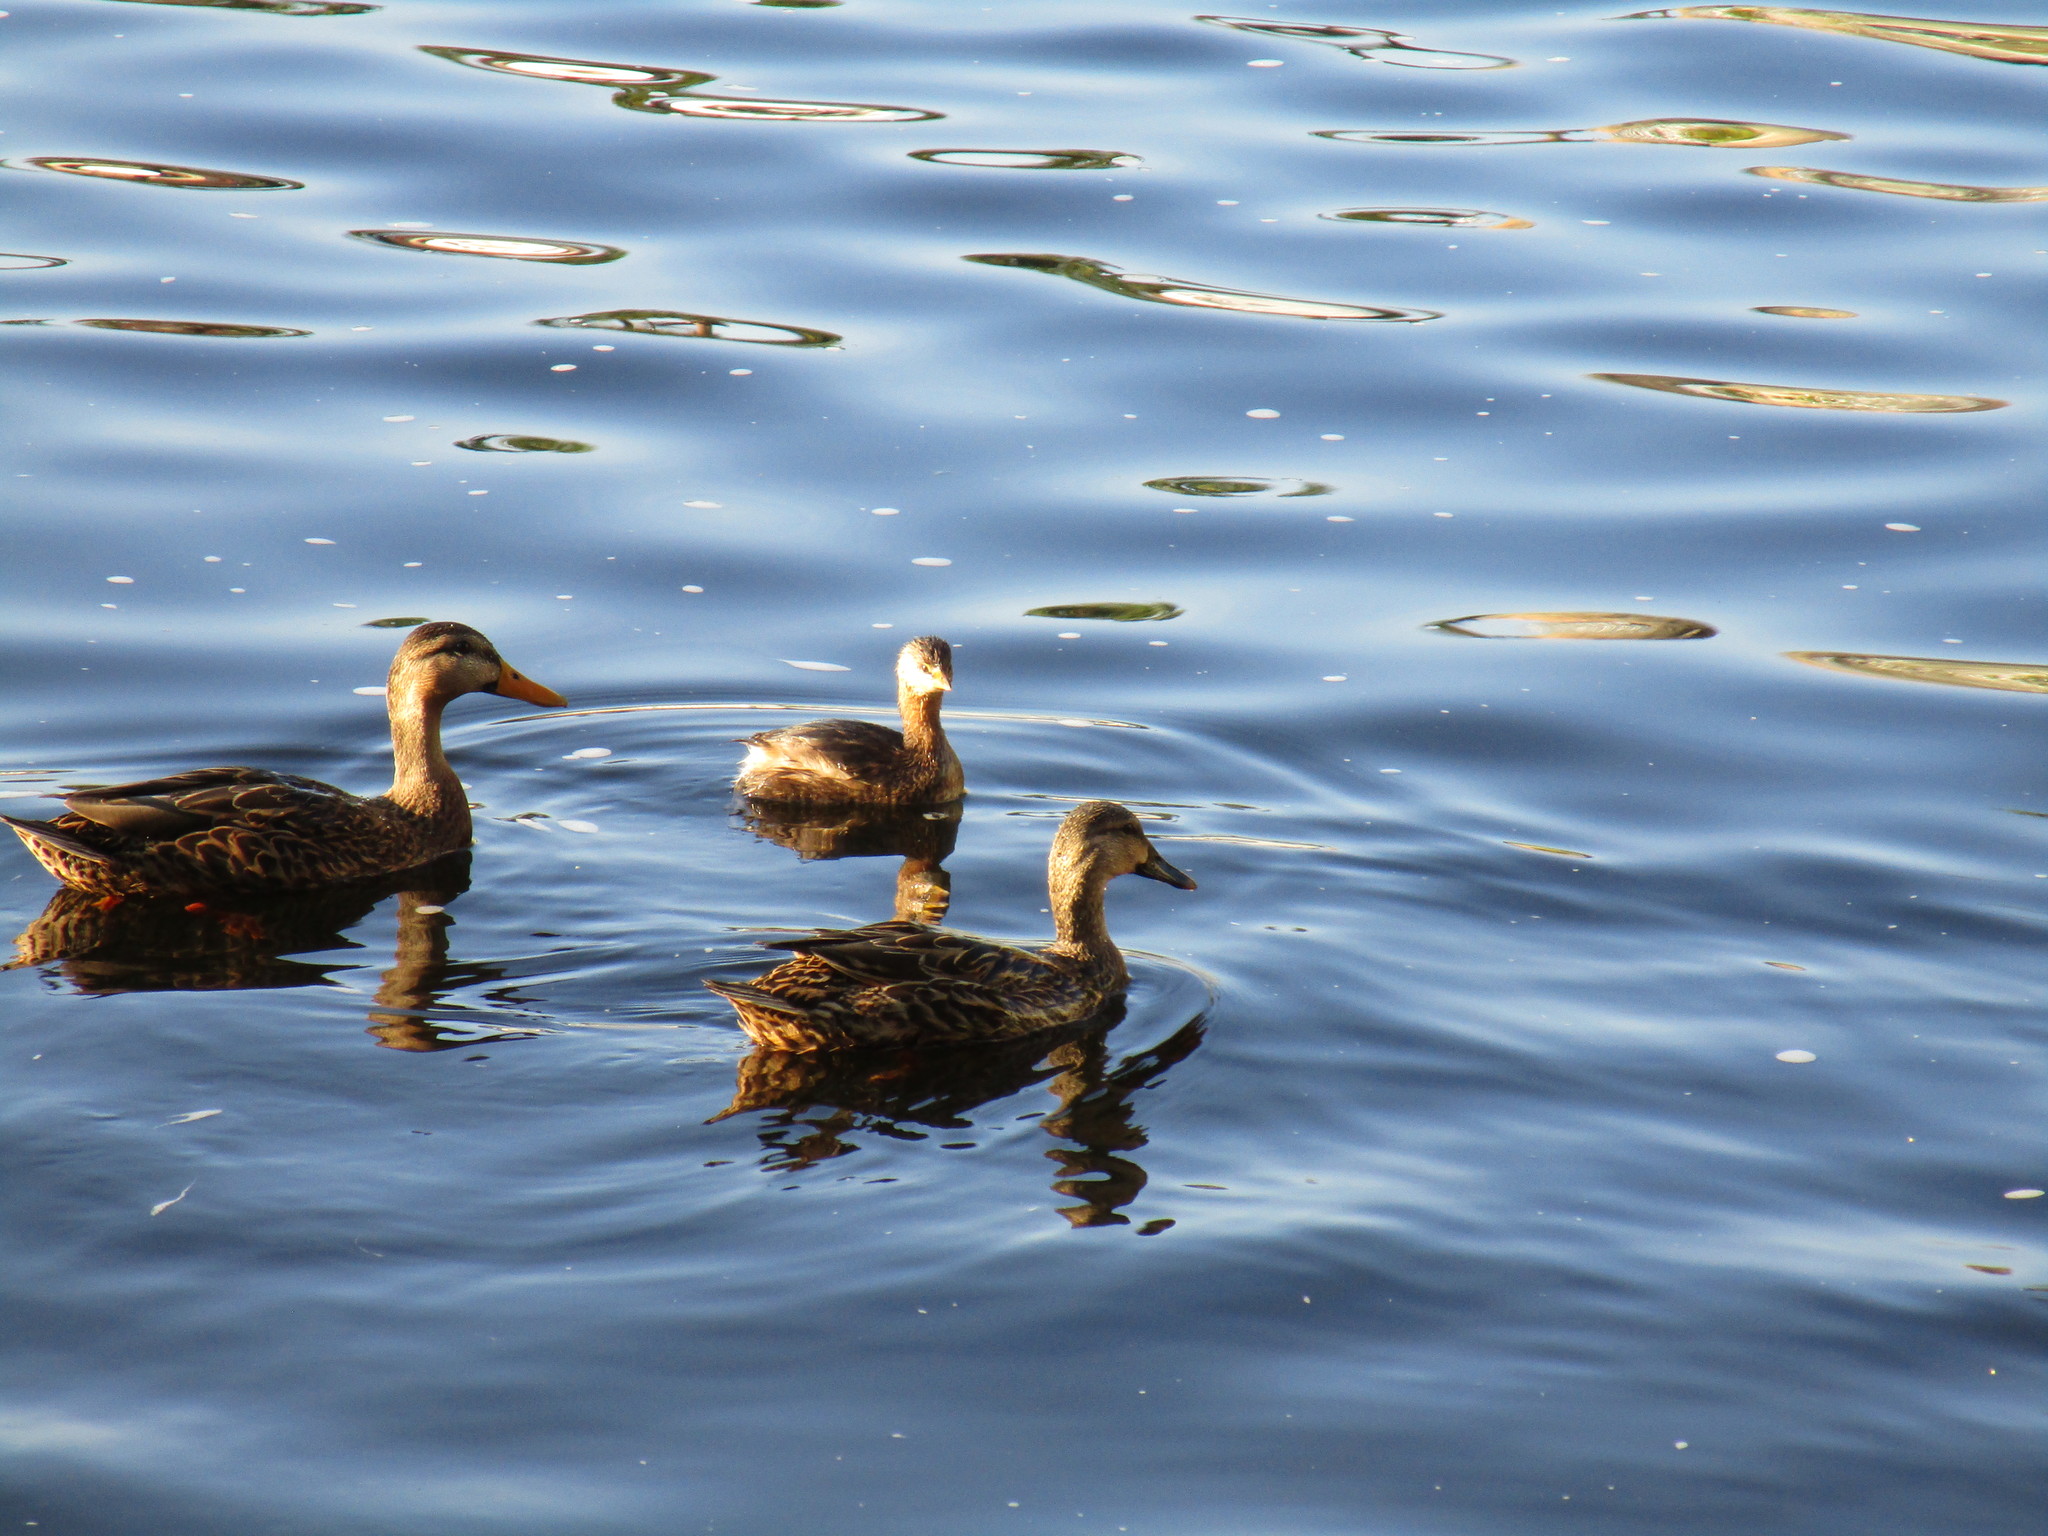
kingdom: Animalia
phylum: Chordata
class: Aves
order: Podicipediformes
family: Podicipedidae
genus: Podilymbus
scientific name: Podilymbus podiceps
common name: Pied-billed grebe
